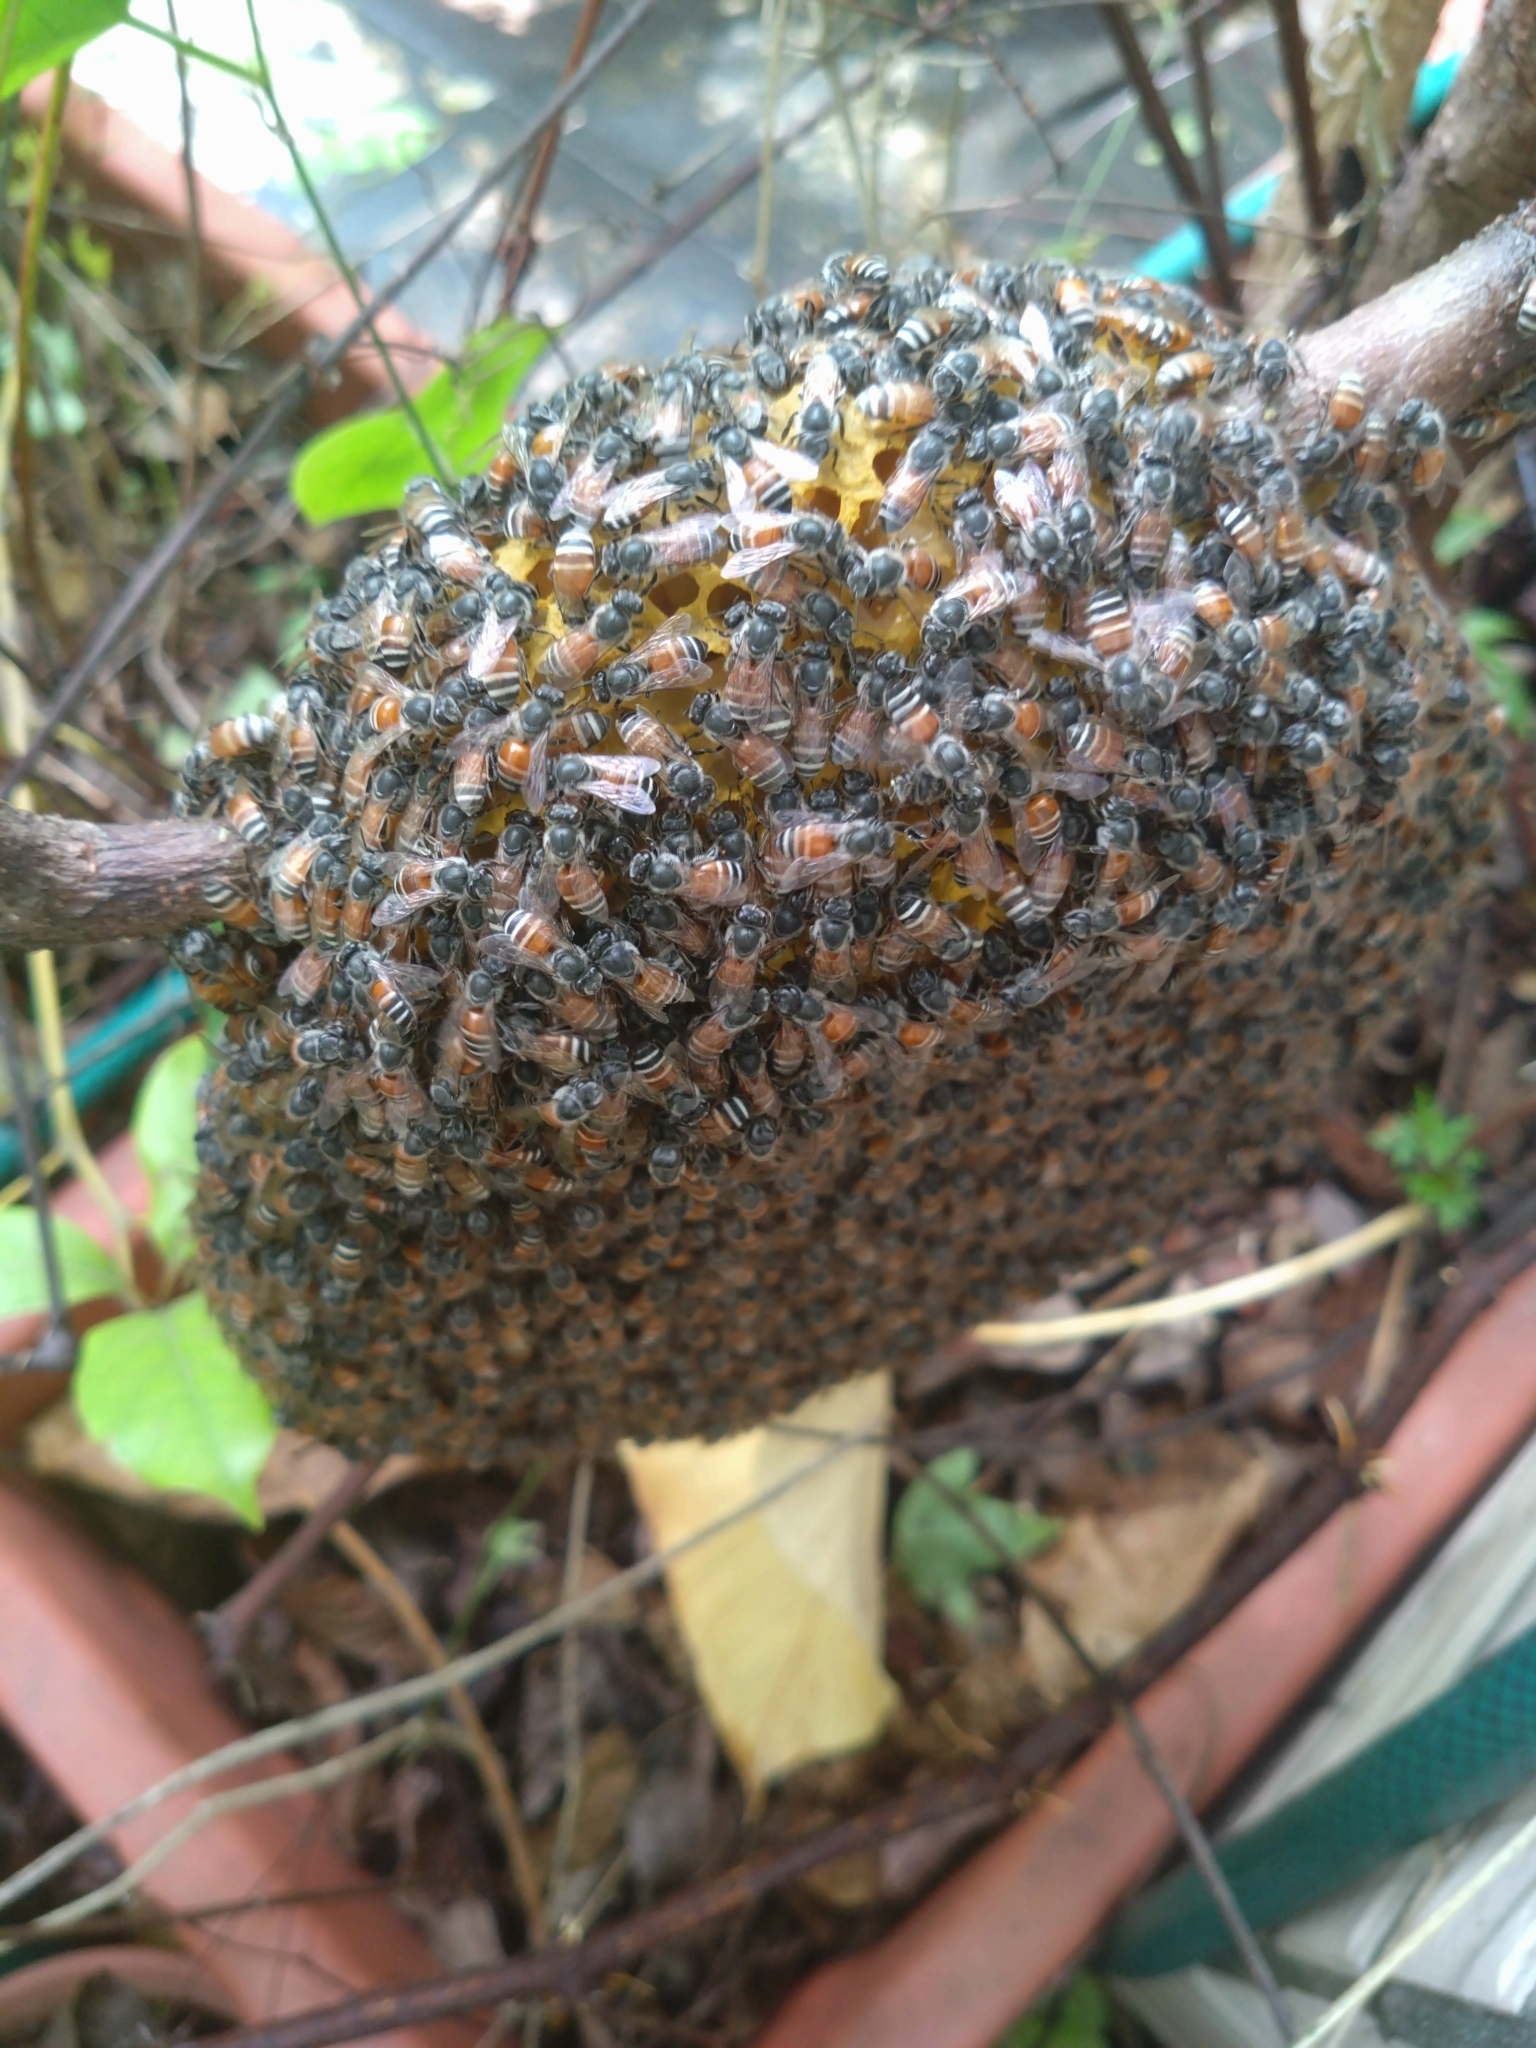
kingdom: Animalia
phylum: Arthropoda
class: Insecta
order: Hymenoptera
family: Apidae
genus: Apis
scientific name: Apis florea
